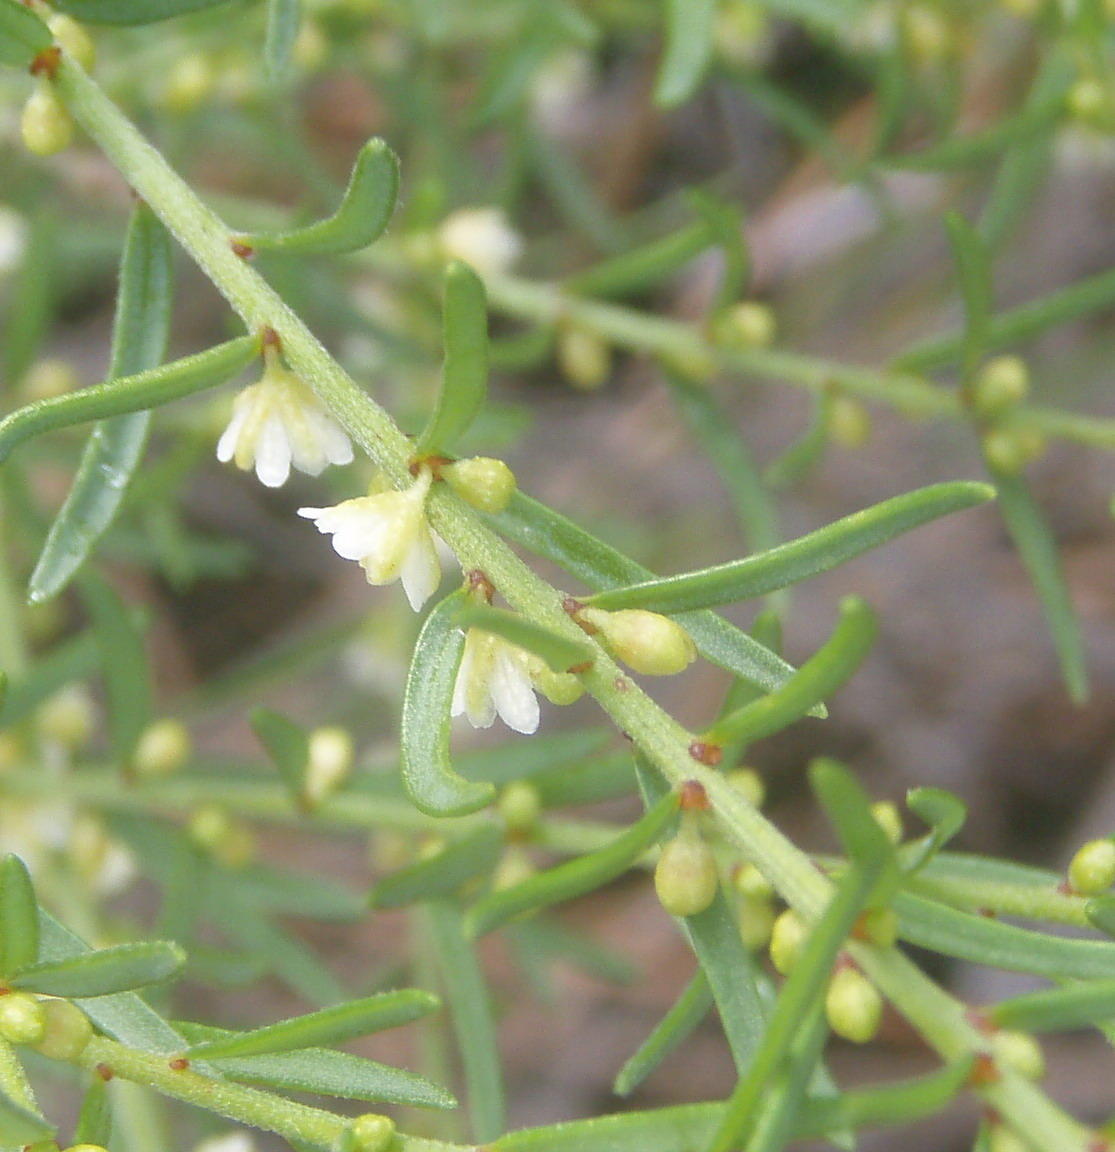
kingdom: Plantae
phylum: Tracheophyta
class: Magnoliopsida
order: Malpighiales
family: Peraceae
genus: Clutia
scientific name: Clutia ericoides
